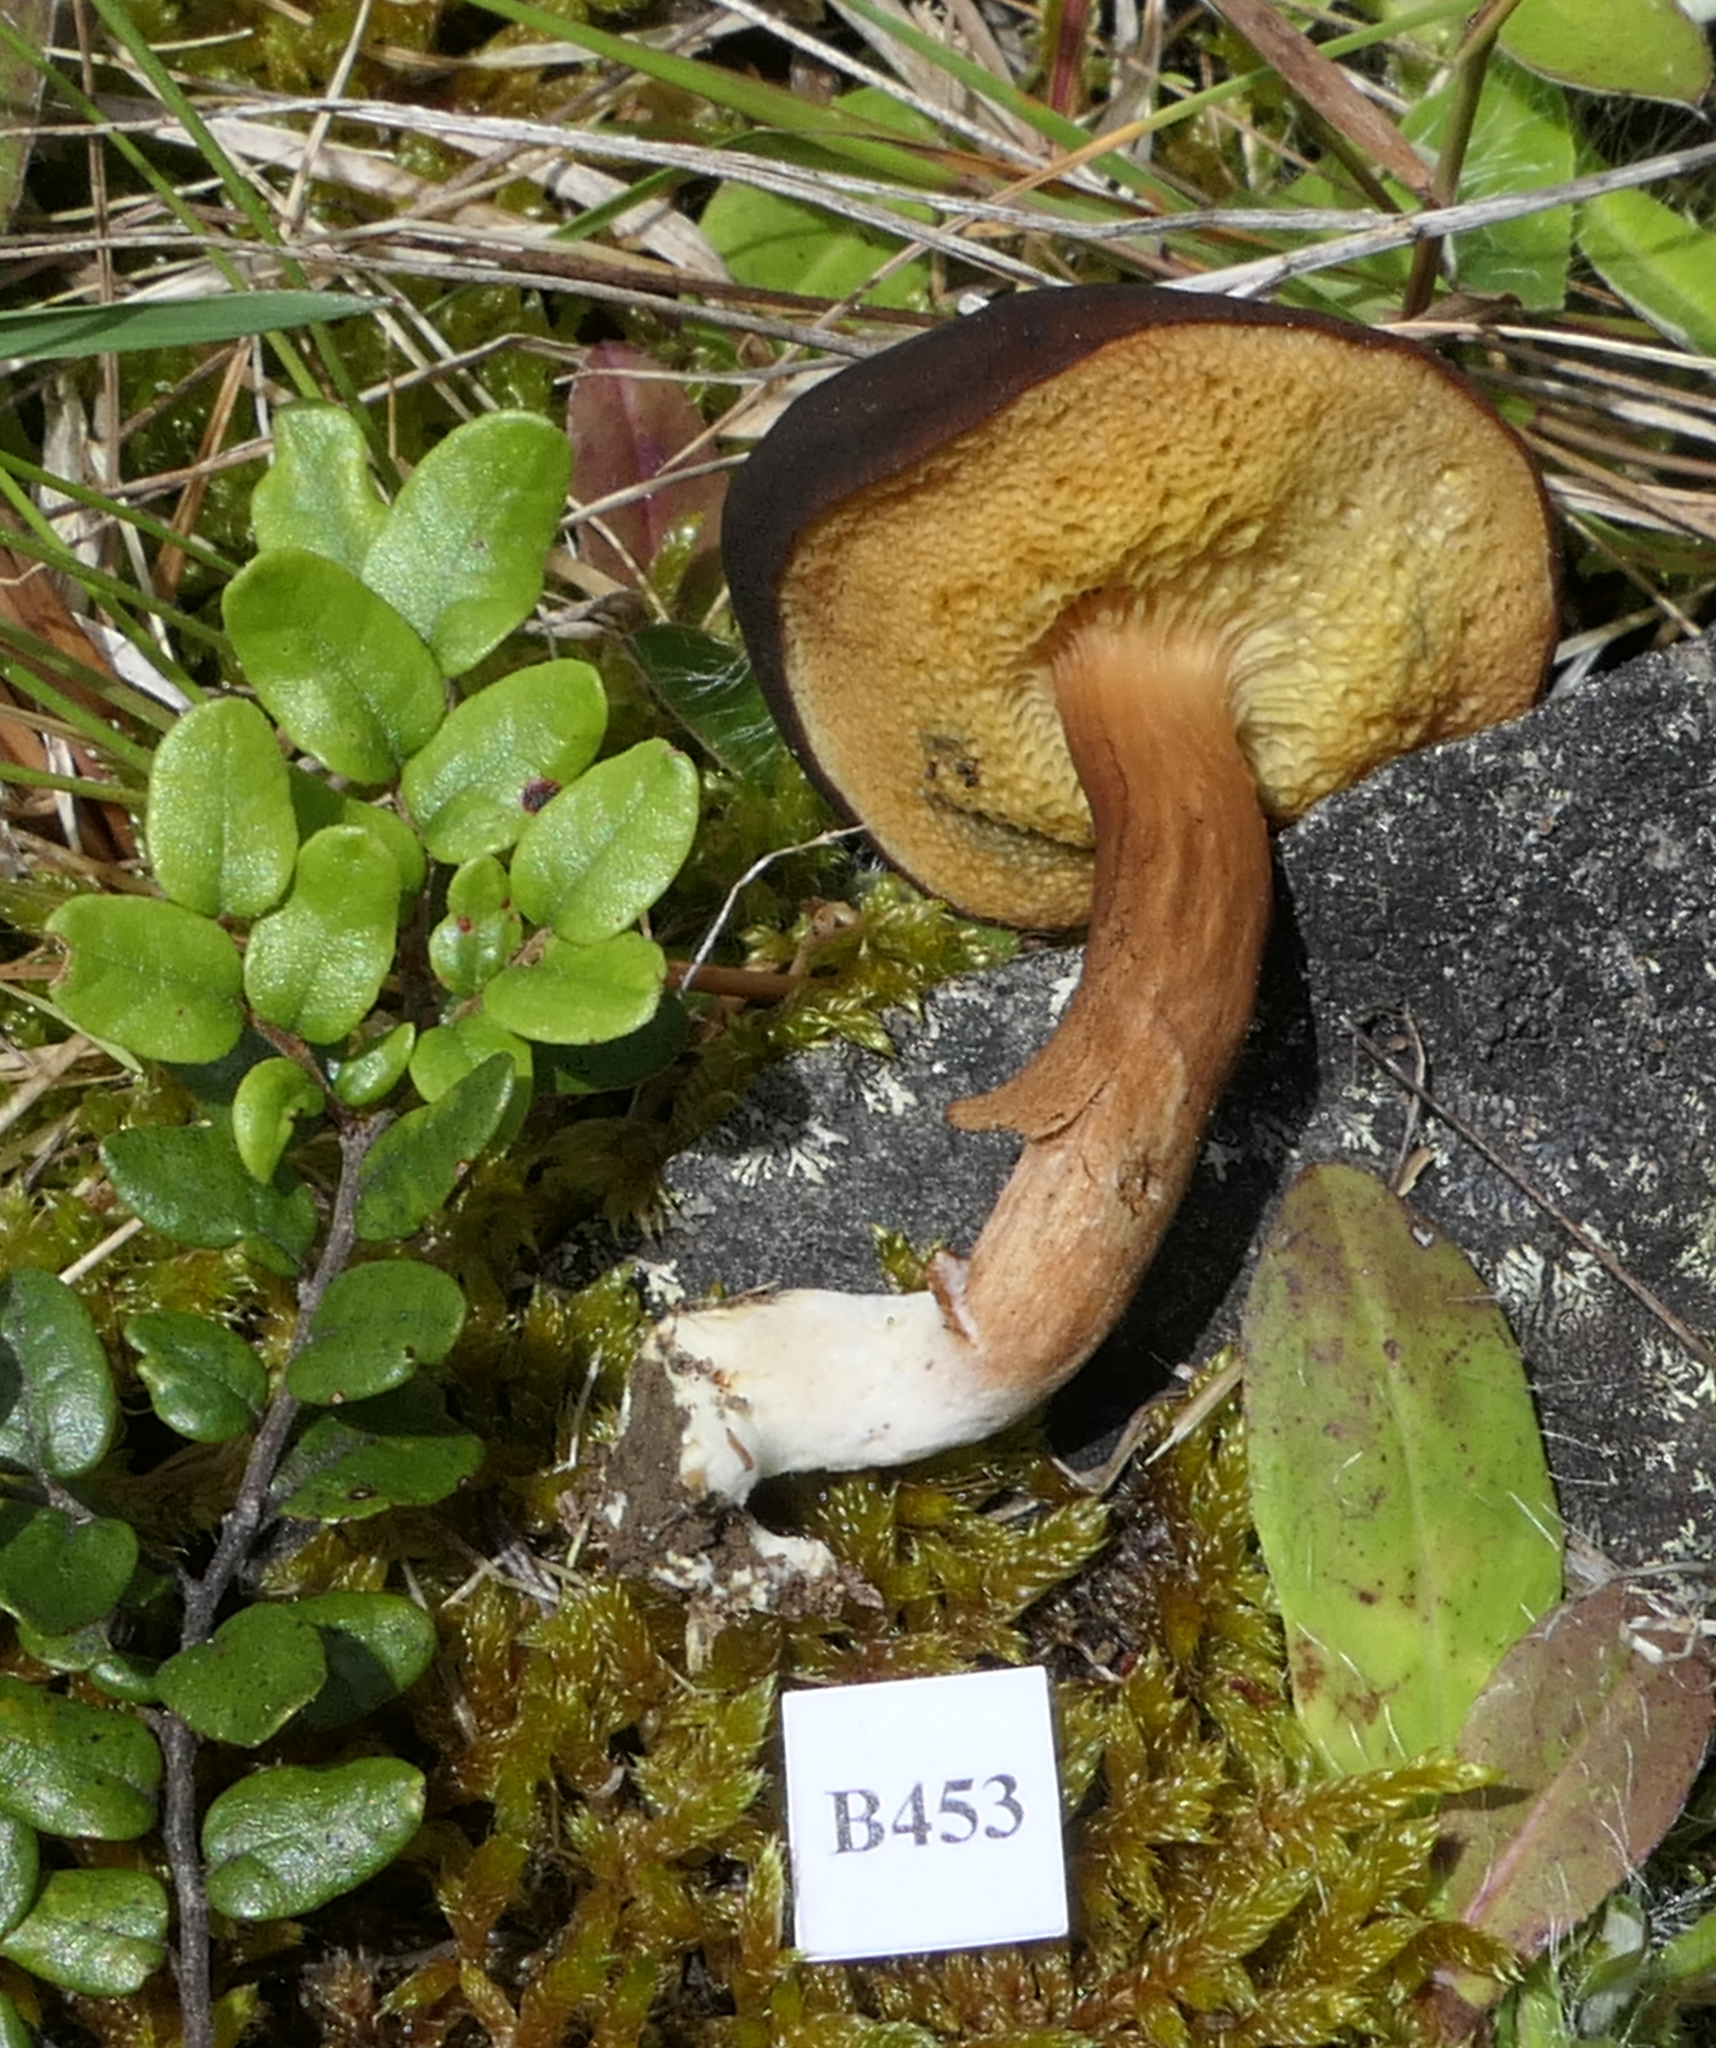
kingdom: Fungi
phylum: Basidiomycota
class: Agaricomycetes
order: Boletales
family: Boletaceae
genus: Xerocomus
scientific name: Xerocomus squamulosus
